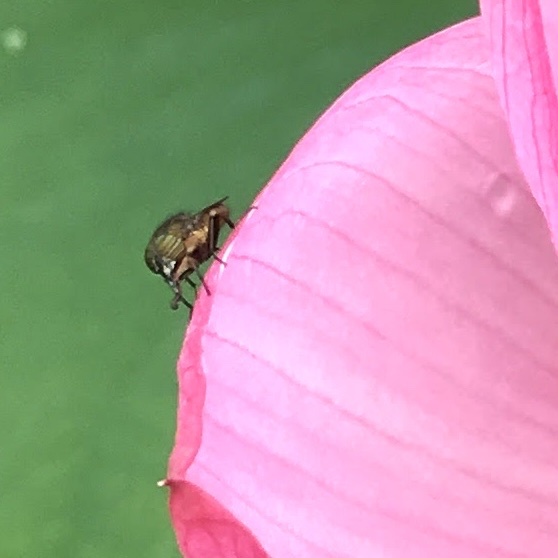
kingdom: Animalia
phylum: Arthropoda
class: Insecta
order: Diptera
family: Calliphoridae
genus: Rhinia
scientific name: Rhinia obsoleta
